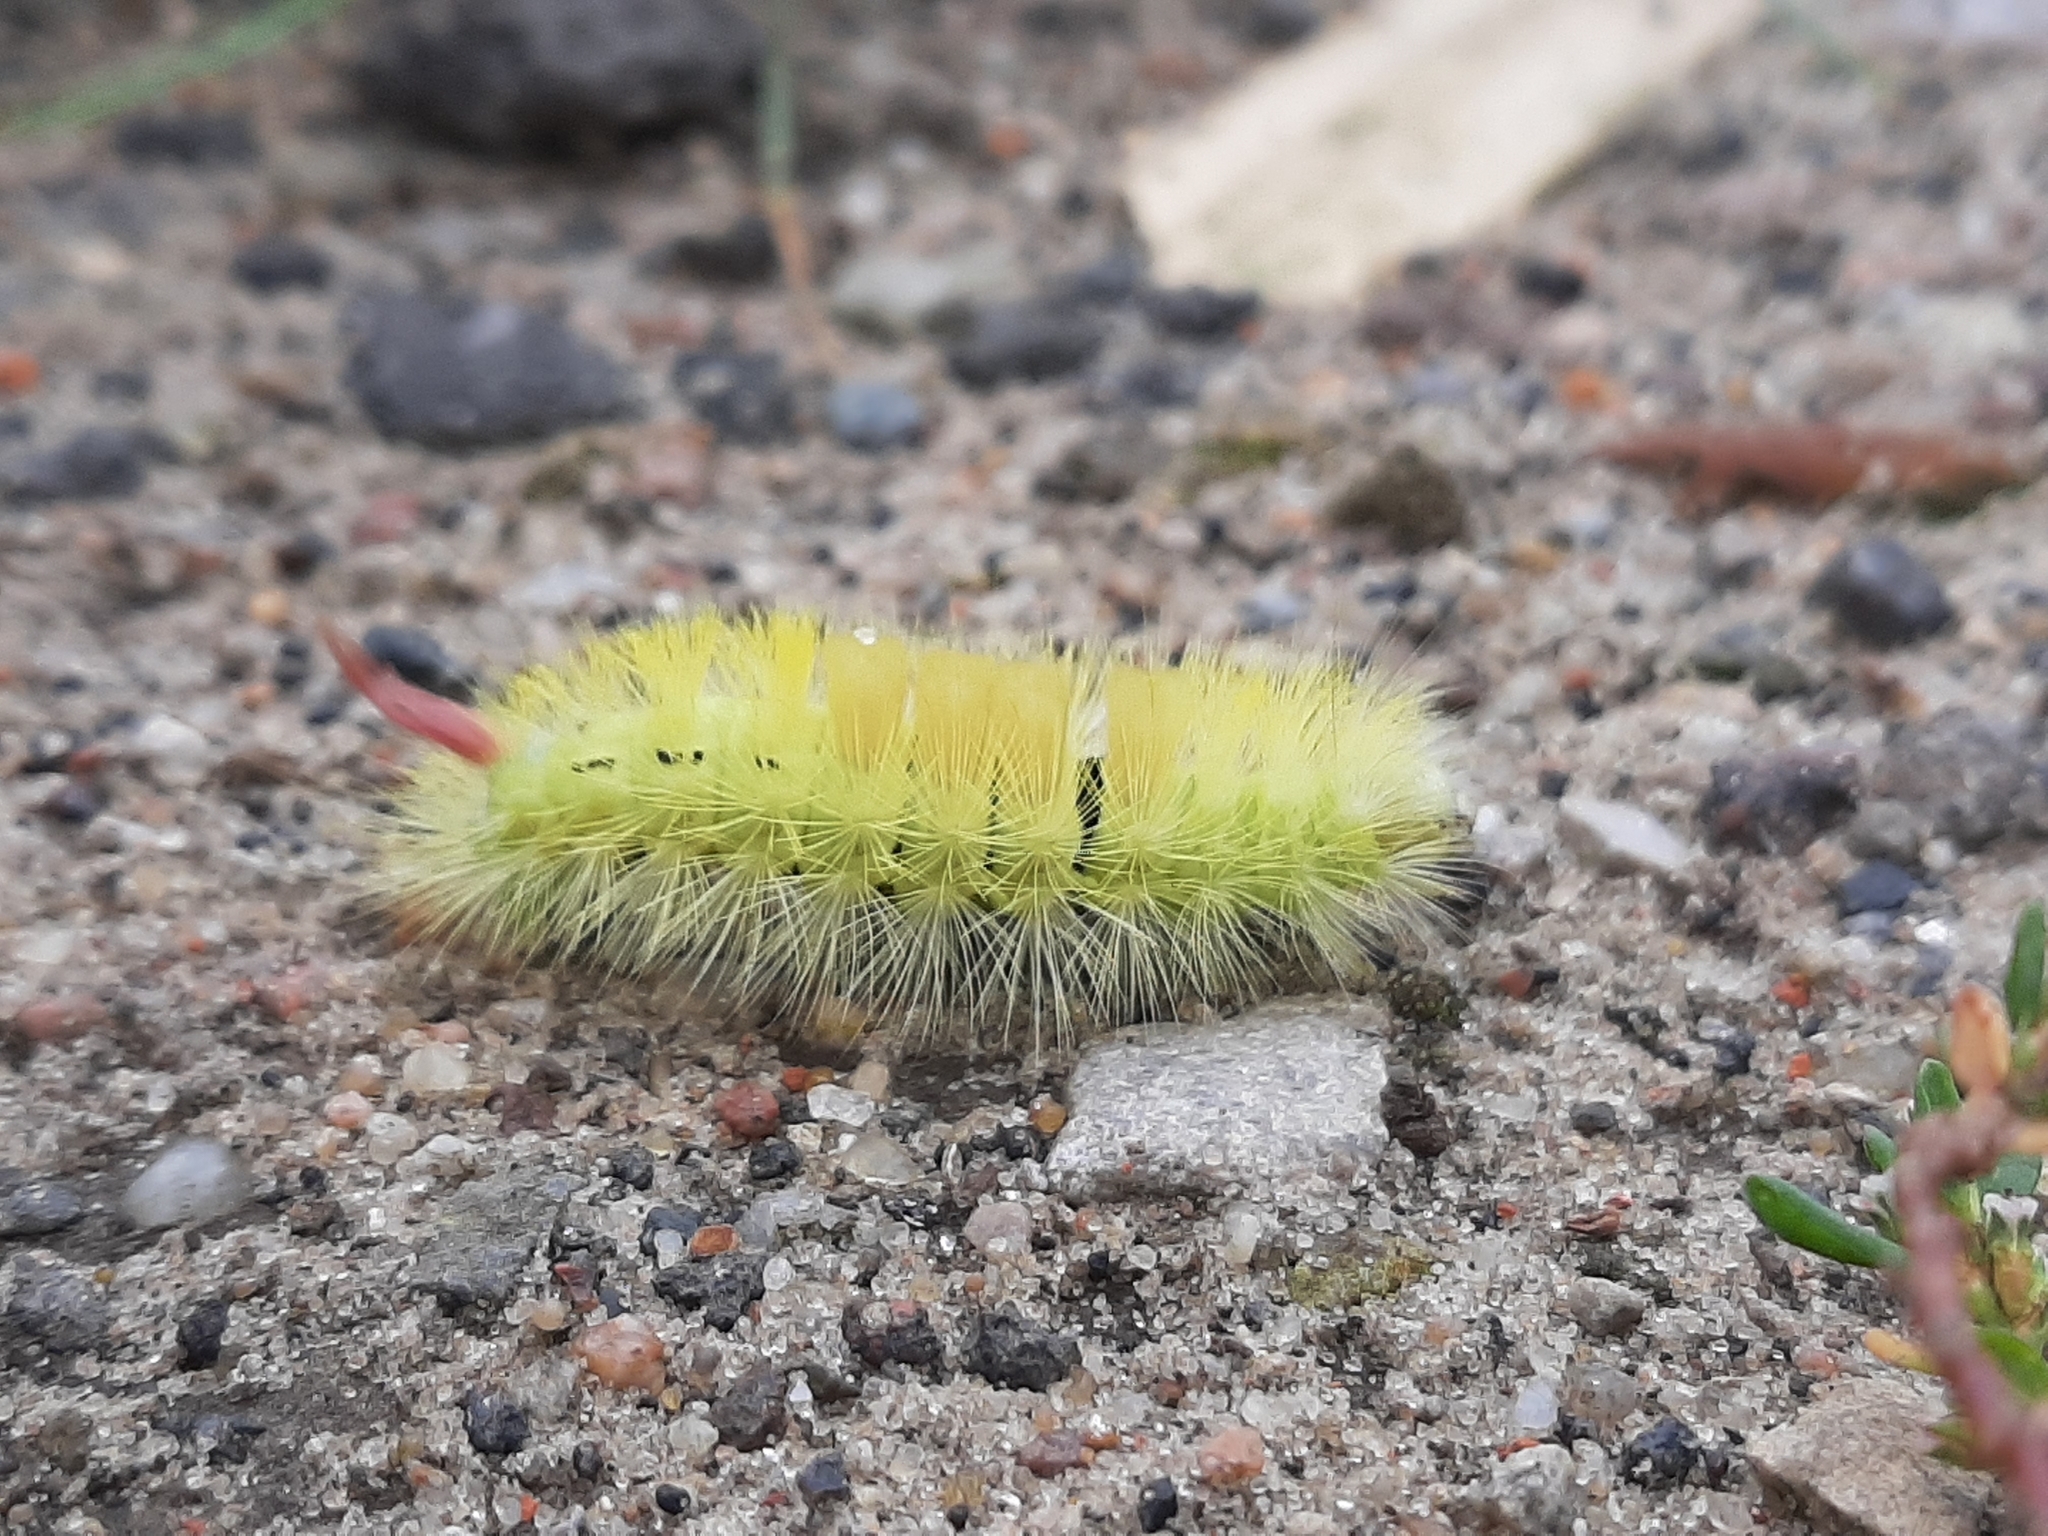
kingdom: Animalia
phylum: Arthropoda
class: Insecta
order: Lepidoptera
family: Erebidae
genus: Calliteara
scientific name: Calliteara pudibunda
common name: Pale tussock
